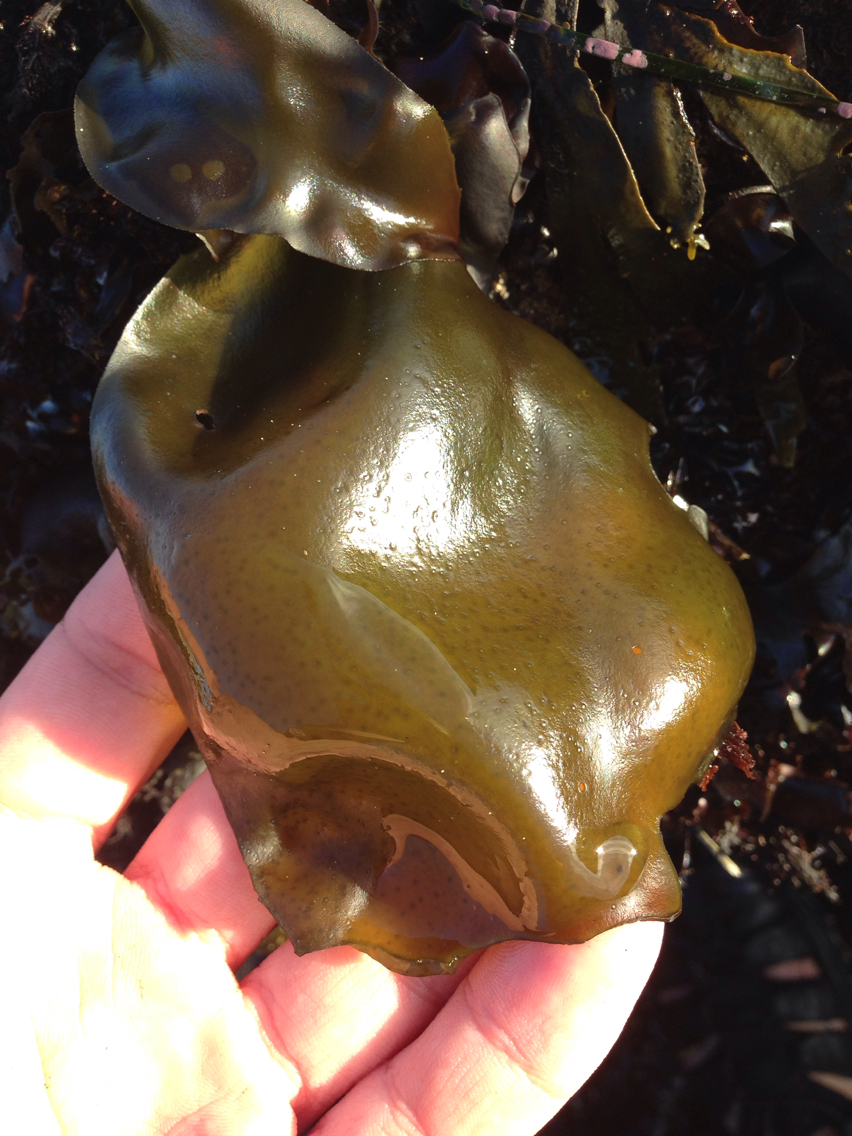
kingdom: Plantae
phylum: Rhodophyta
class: Florideophyceae
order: Gigartinales
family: Gigartinaceae
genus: Mazzaella
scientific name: Mazzaella flaccida
